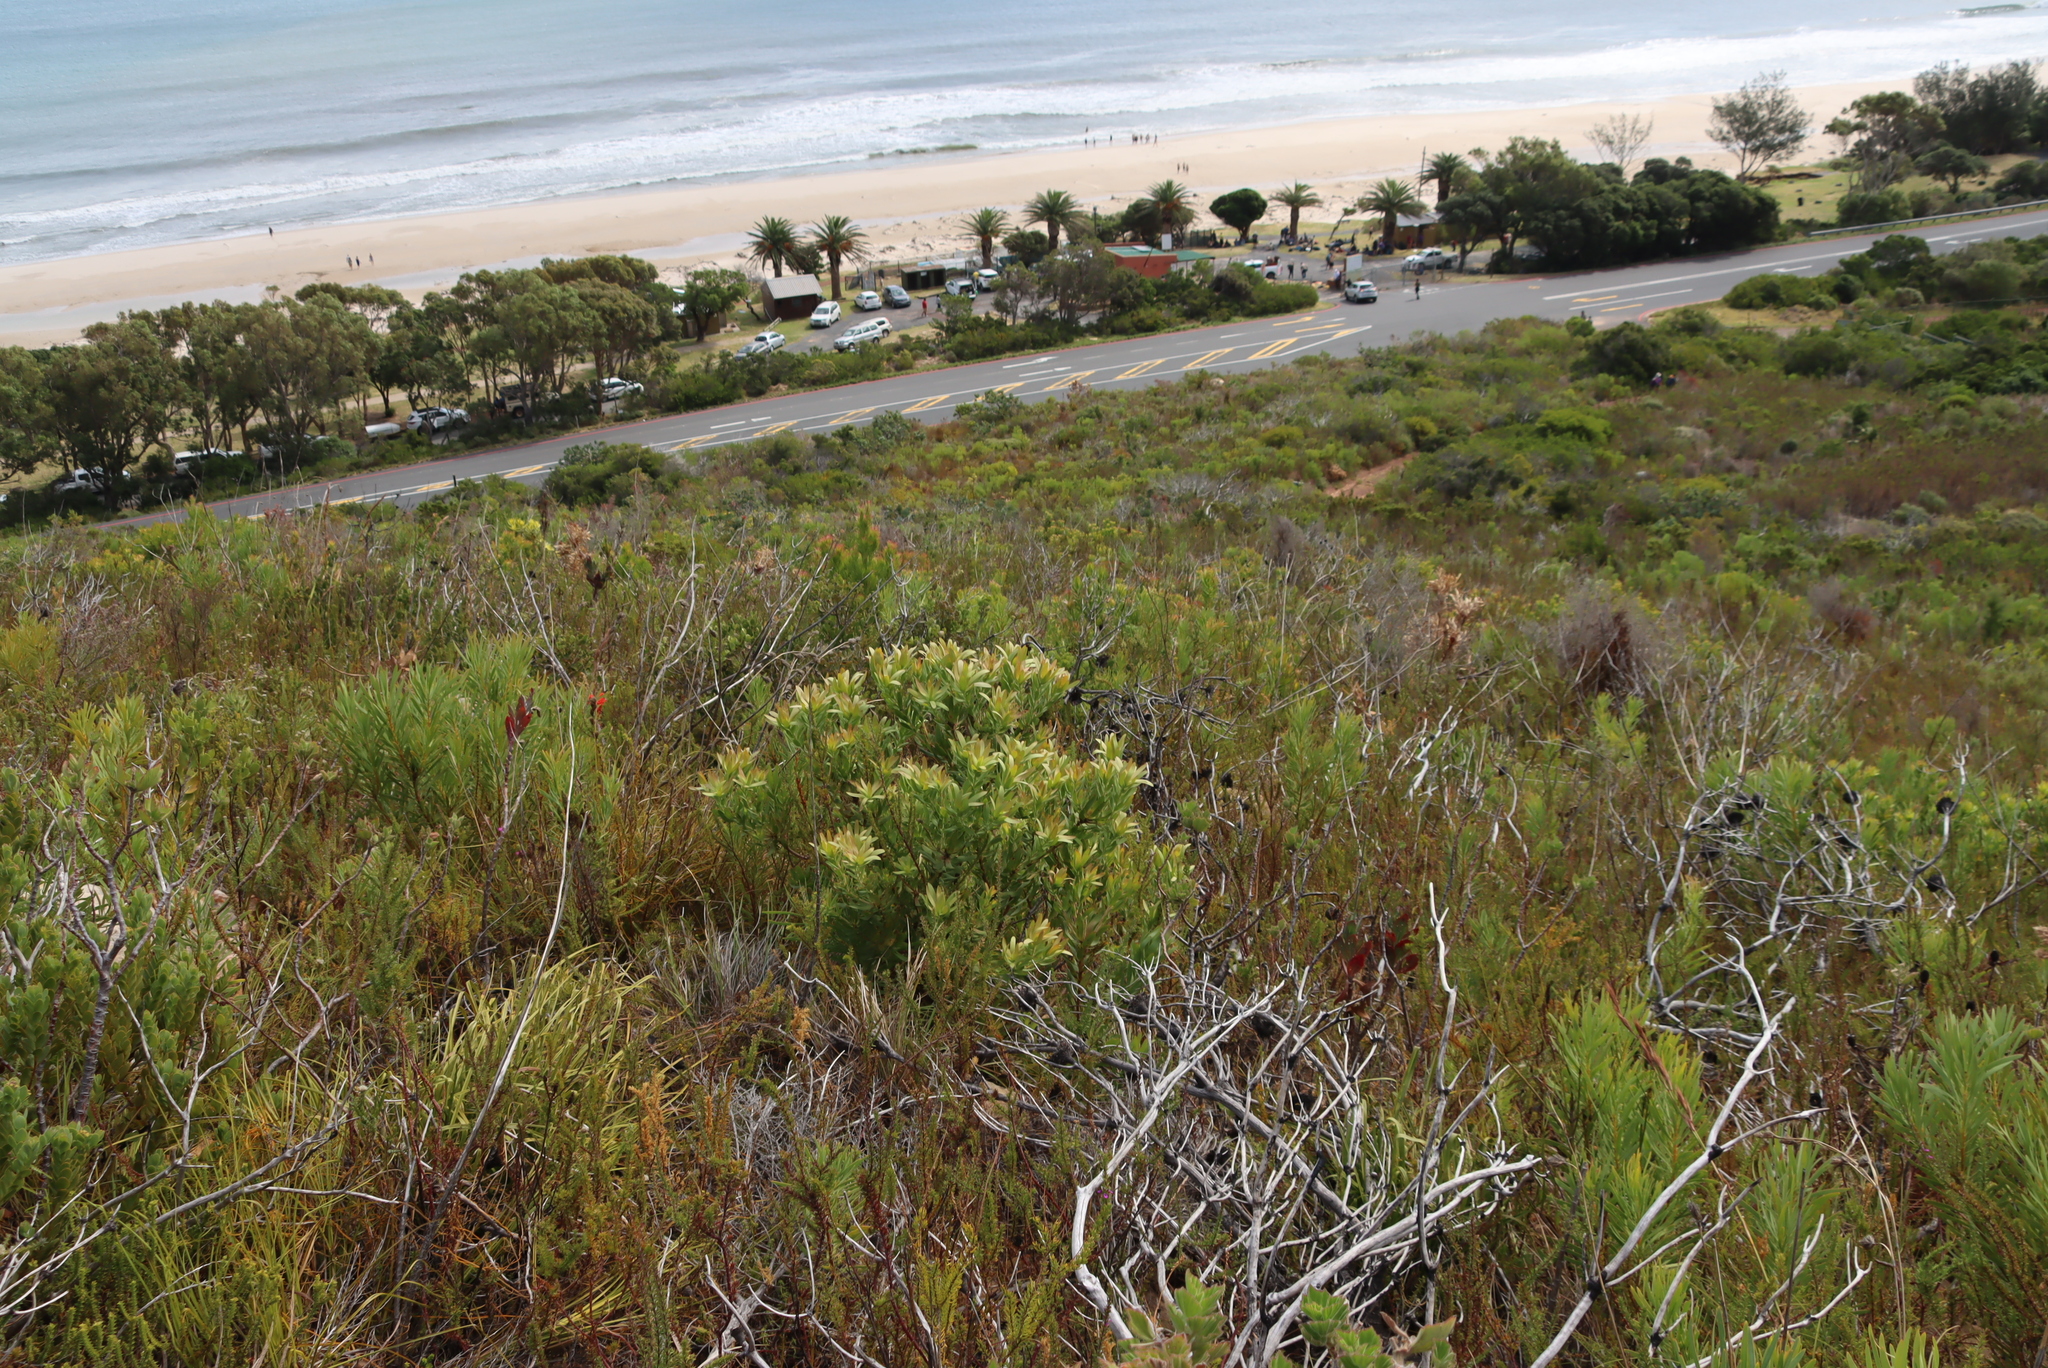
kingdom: Plantae
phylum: Tracheophyta
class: Magnoliopsida
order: Proteales
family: Proteaceae
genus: Leucadendron
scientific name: Leucadendron xanthoconus
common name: Sickle-leaf conebush
